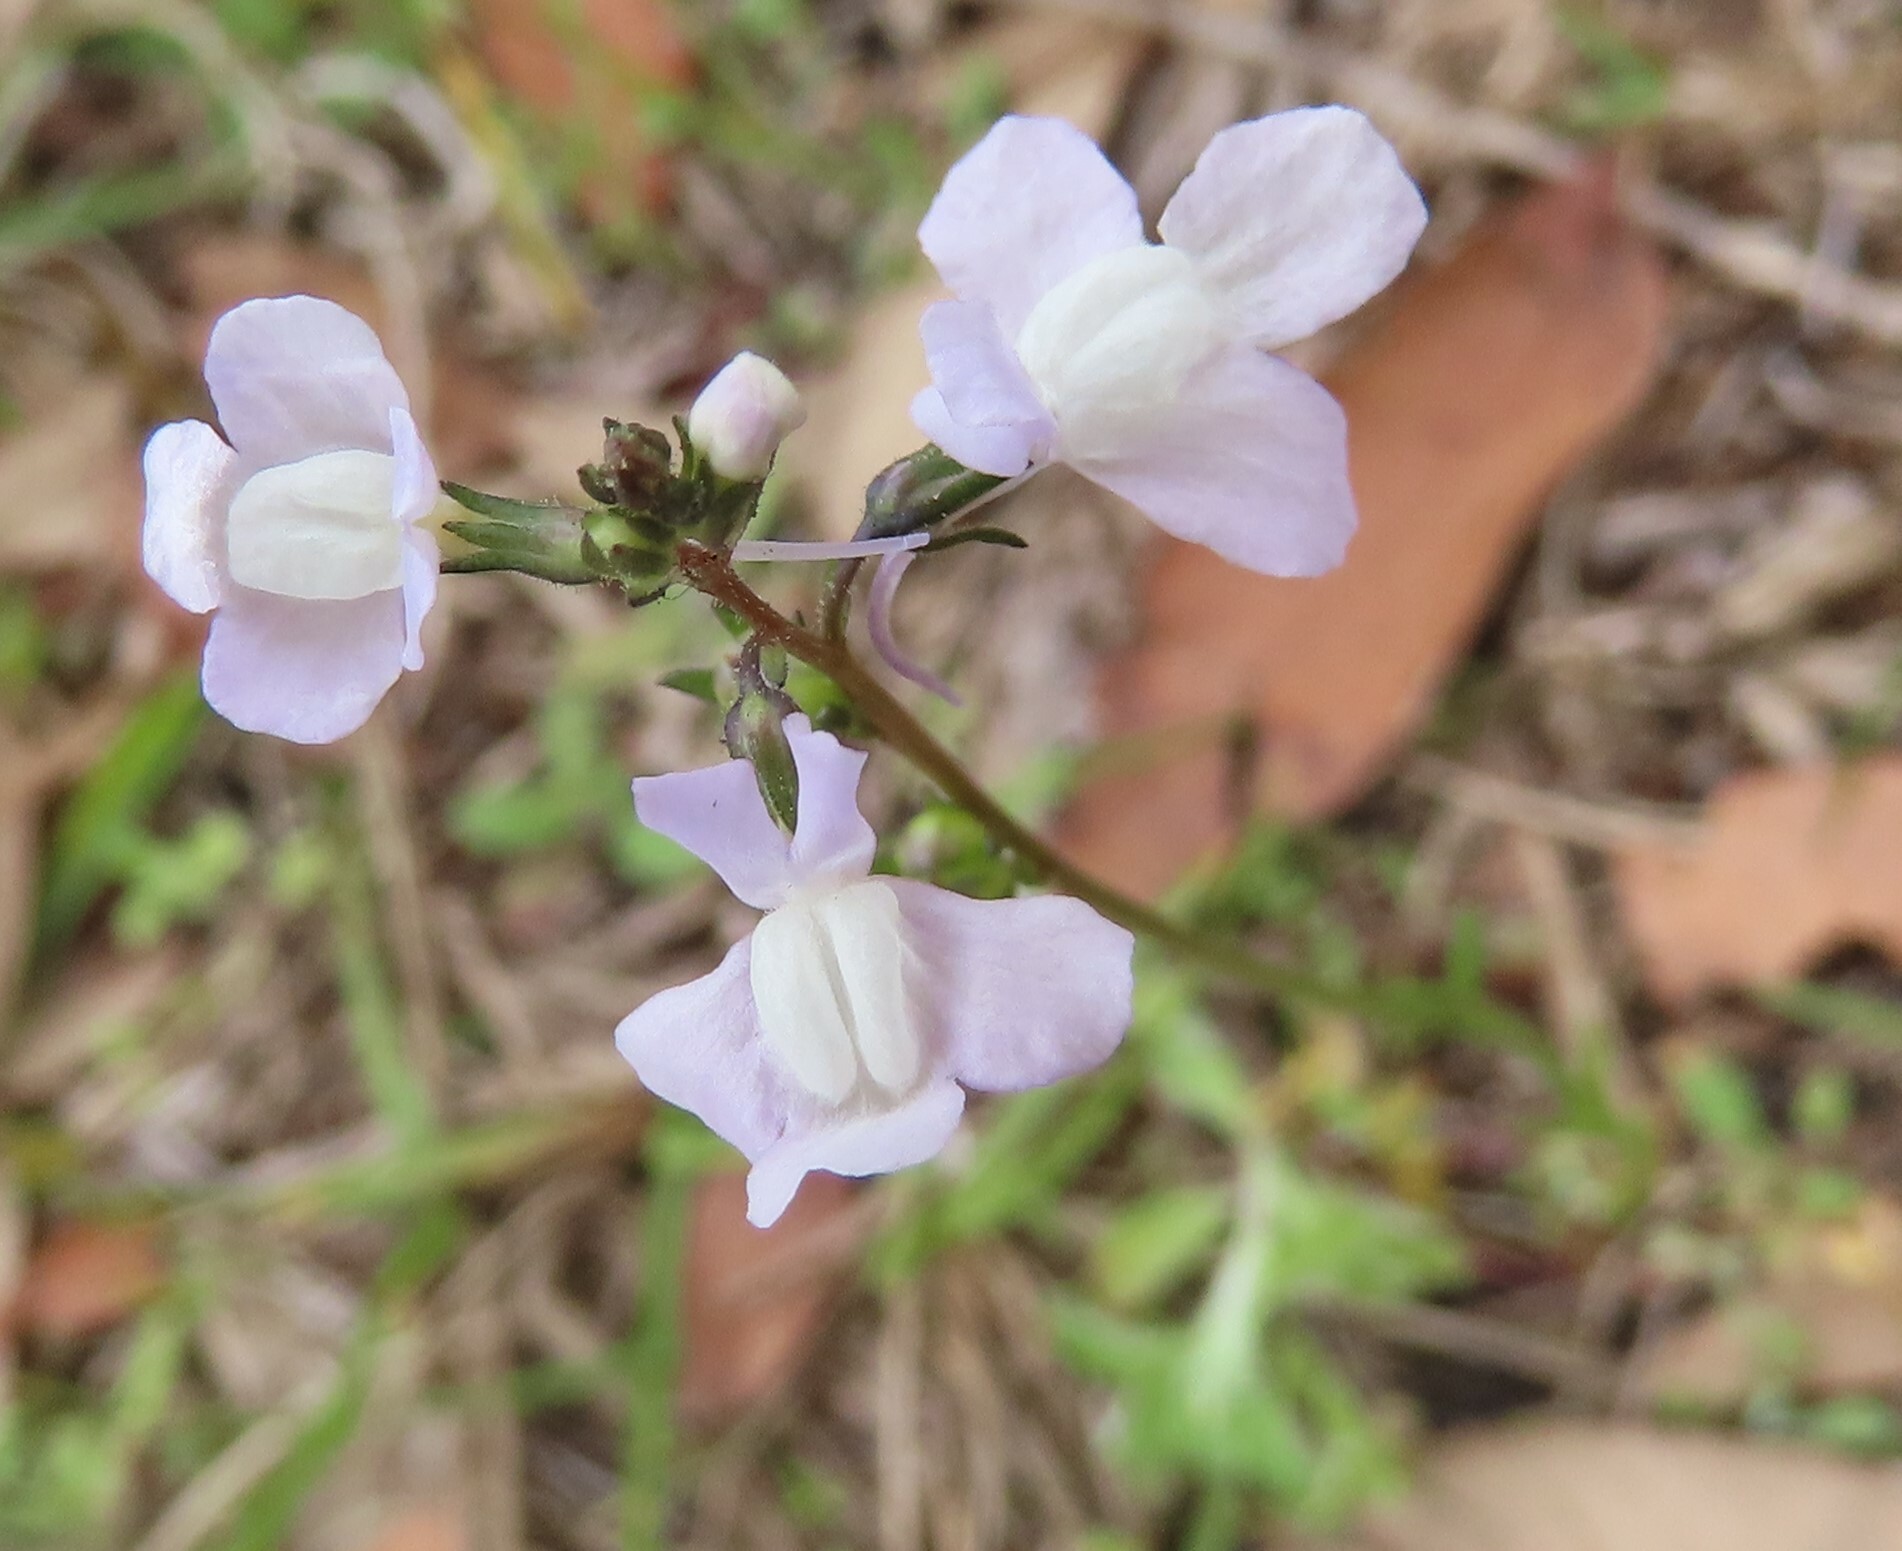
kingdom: Plantae
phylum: Tracheophyta
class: Magnoliopsida
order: Lamiales
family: Plantaginaceae
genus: Nuttallanthus
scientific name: Nuttallanthus canadensis
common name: Blue toadflax
